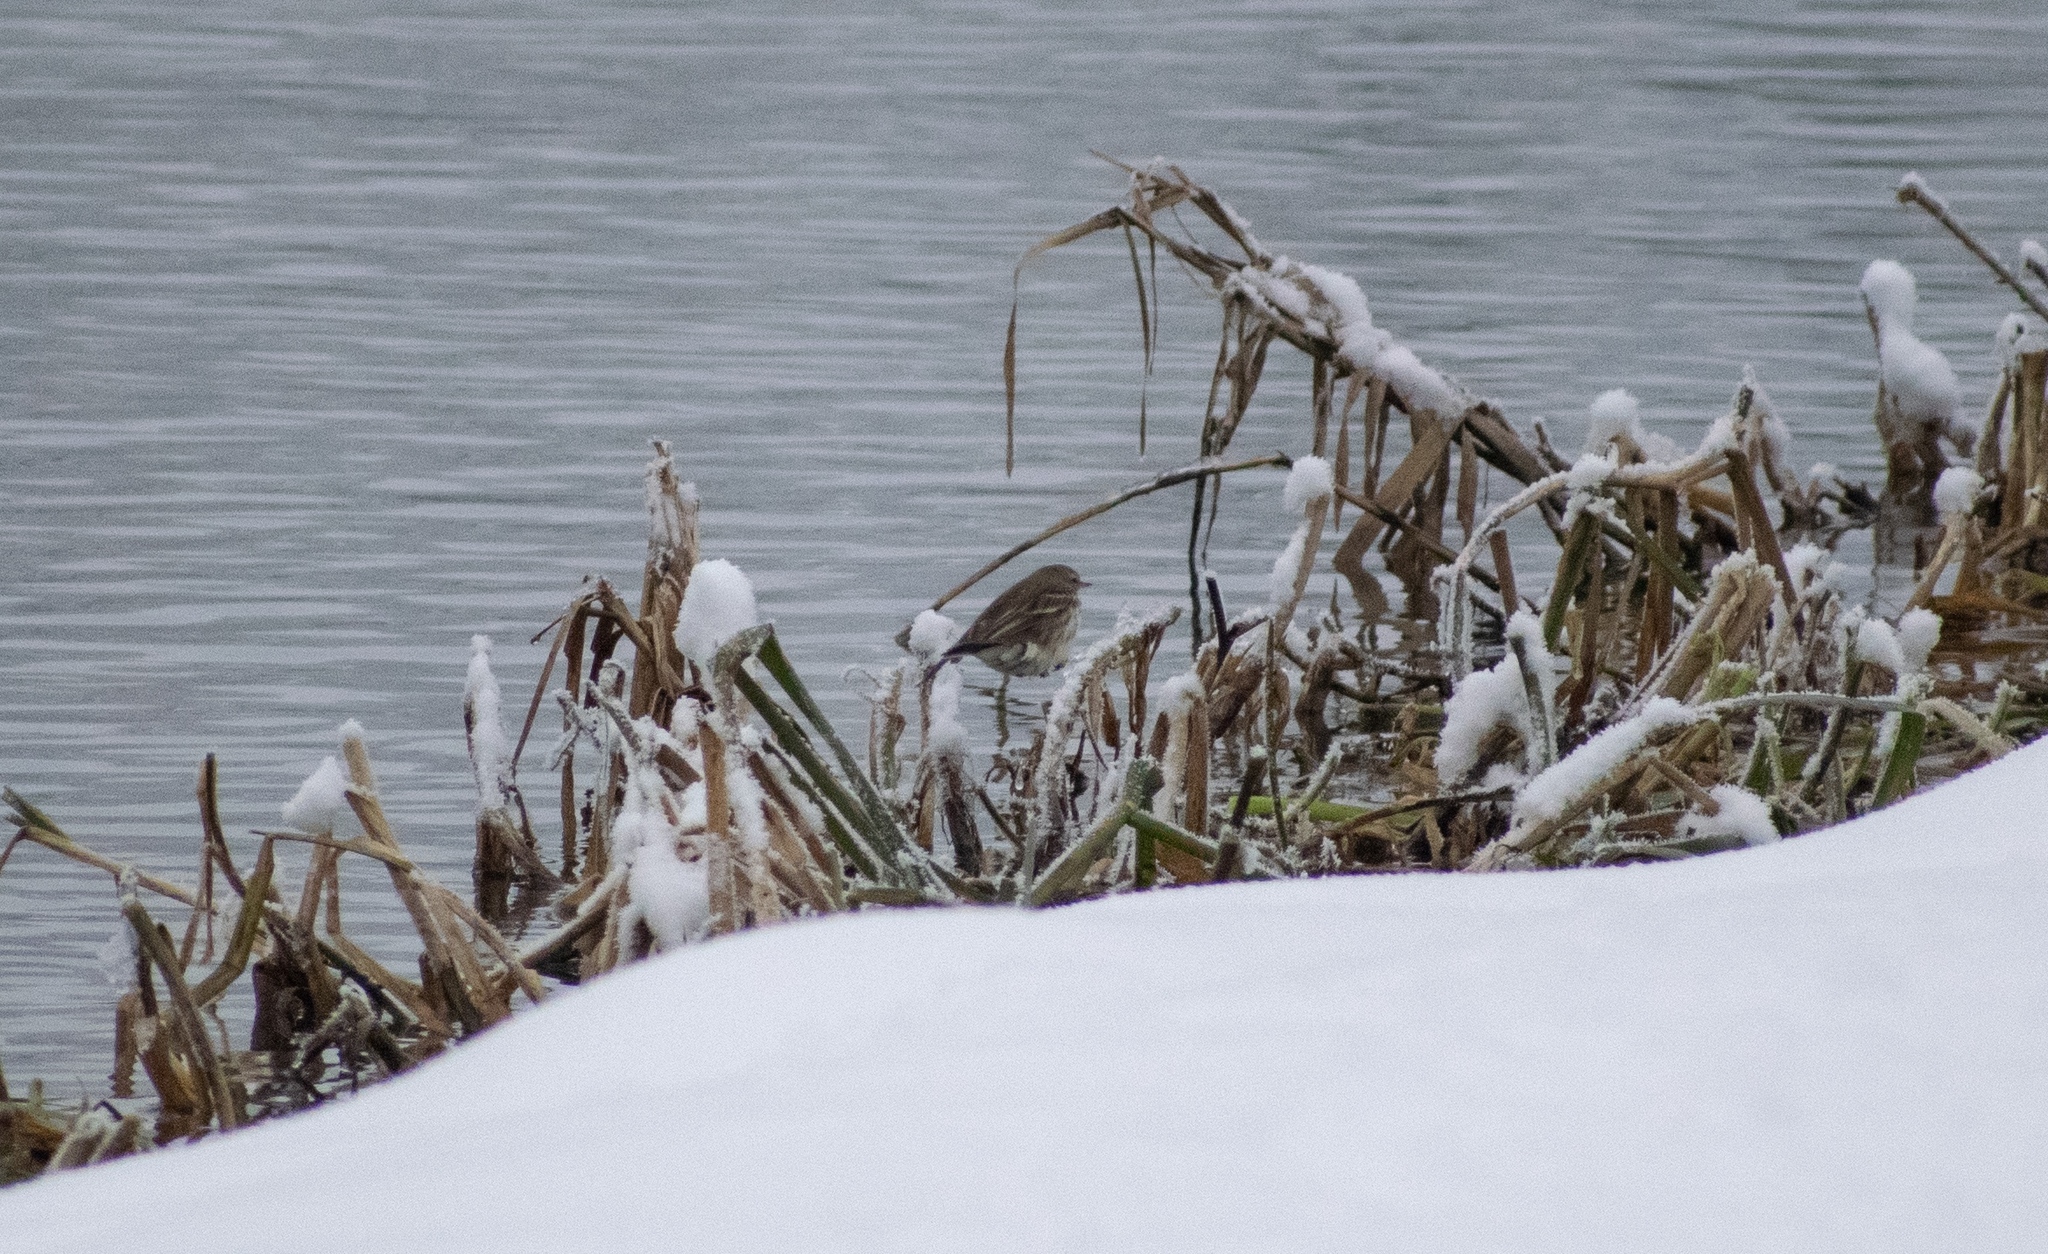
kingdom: Animalia
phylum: Chordata
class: Aves
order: Passeriformes
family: Motacillidae
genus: Anthus
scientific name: Anthus spinoletta
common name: Water pipit
